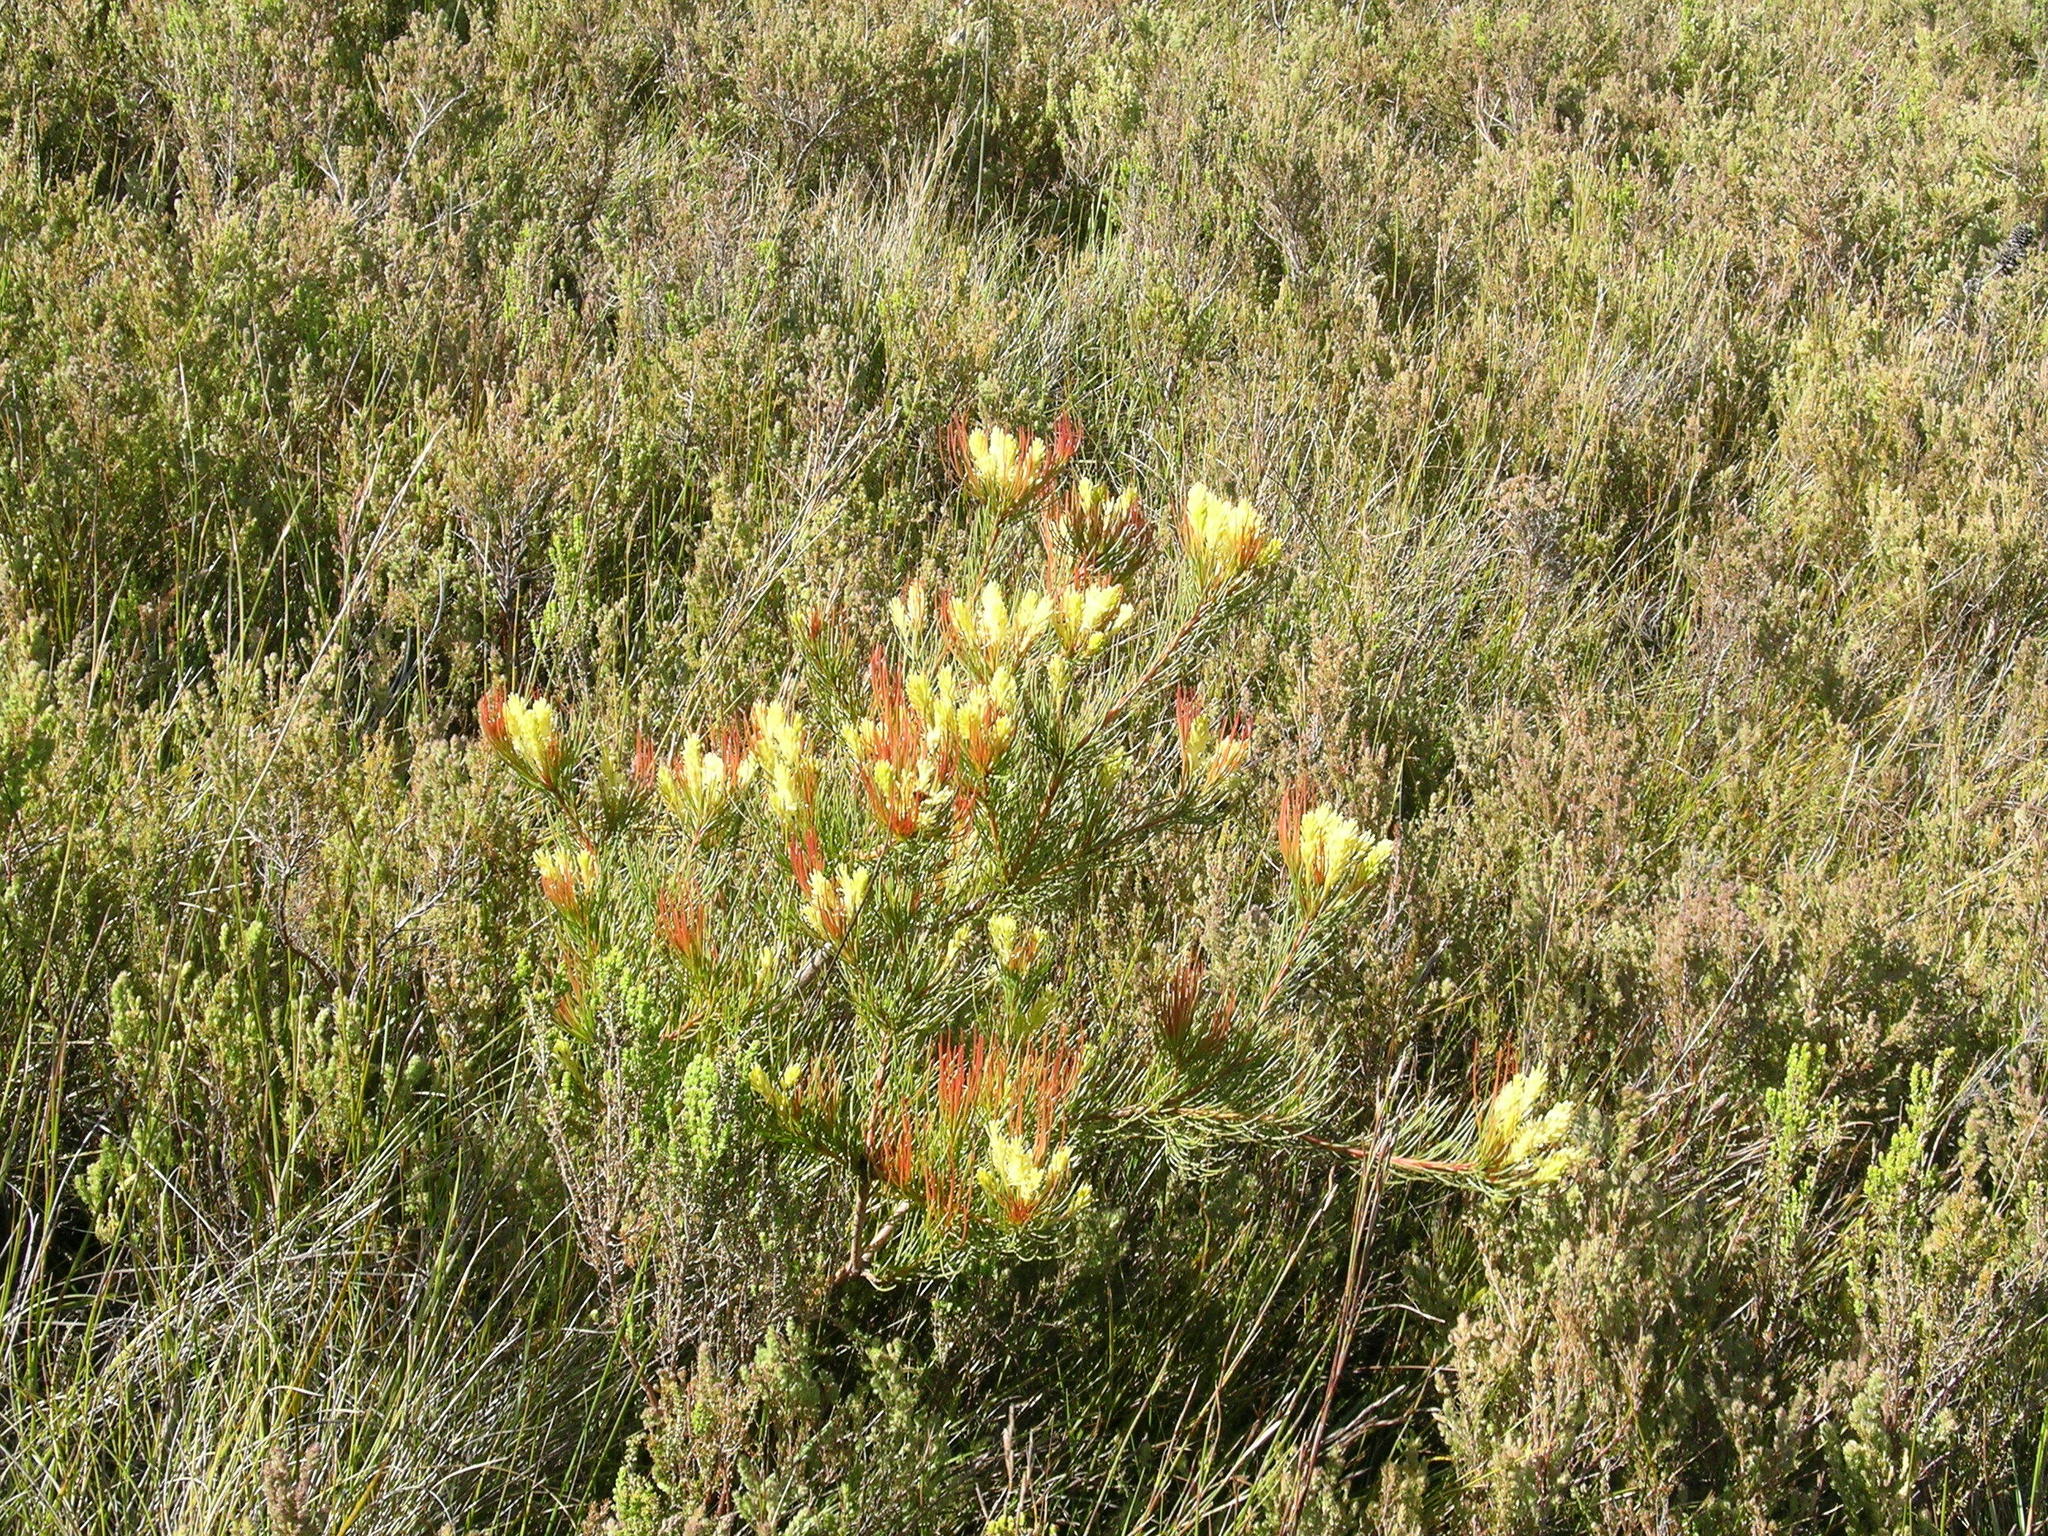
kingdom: Plantae
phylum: Tracheophyta
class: Magnoliopsida
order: Proteales
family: Proteaceae
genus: Aulax
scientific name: Aulax cancellata
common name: Channel-leaf featherbush
